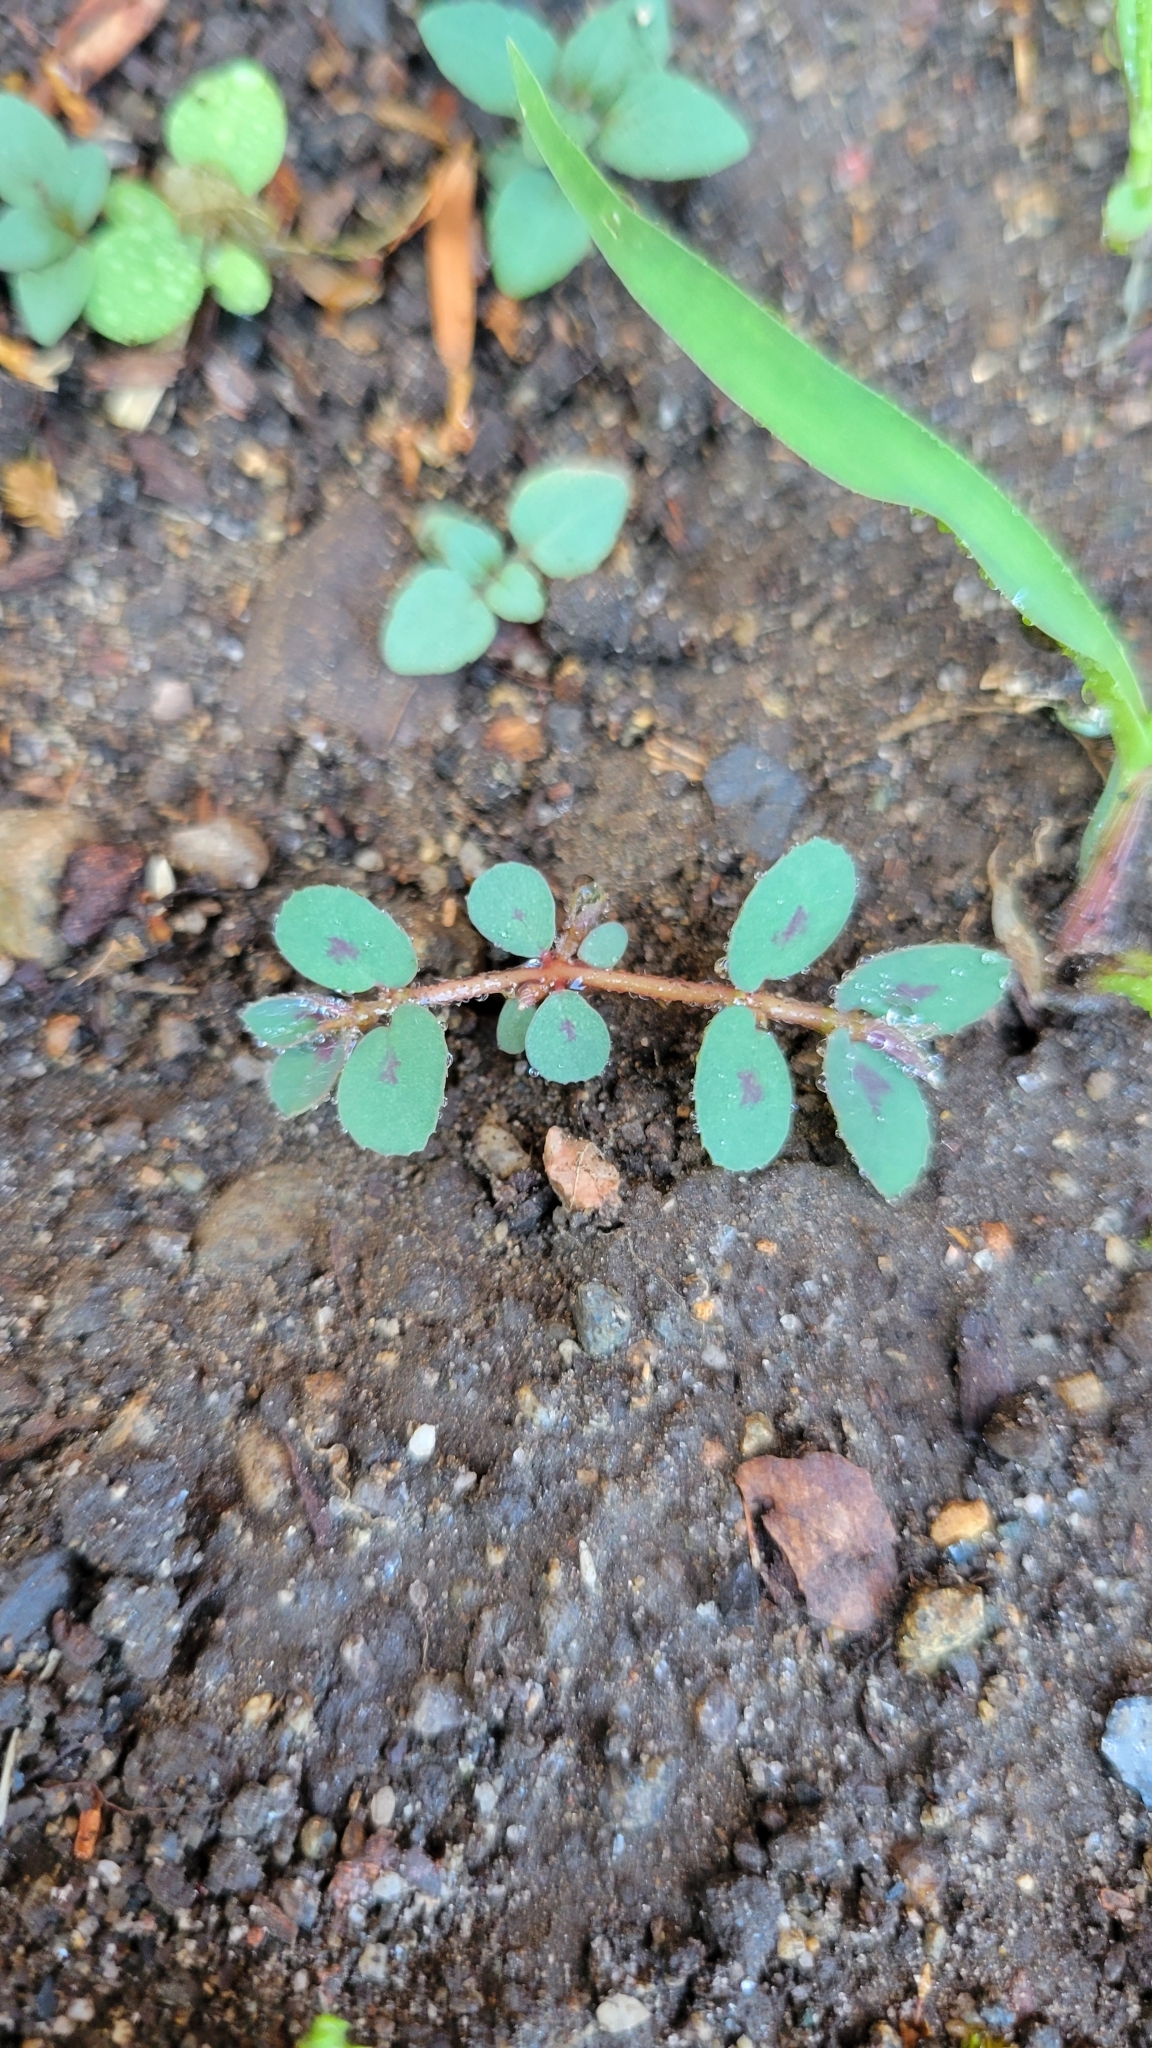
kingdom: Plantae
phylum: Tracheophyta
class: Magnoliopsida
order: Malpighiales
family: Euphorbiaceae
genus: Euphorbia
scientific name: Euphorbia maculata
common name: Spotted spurge
